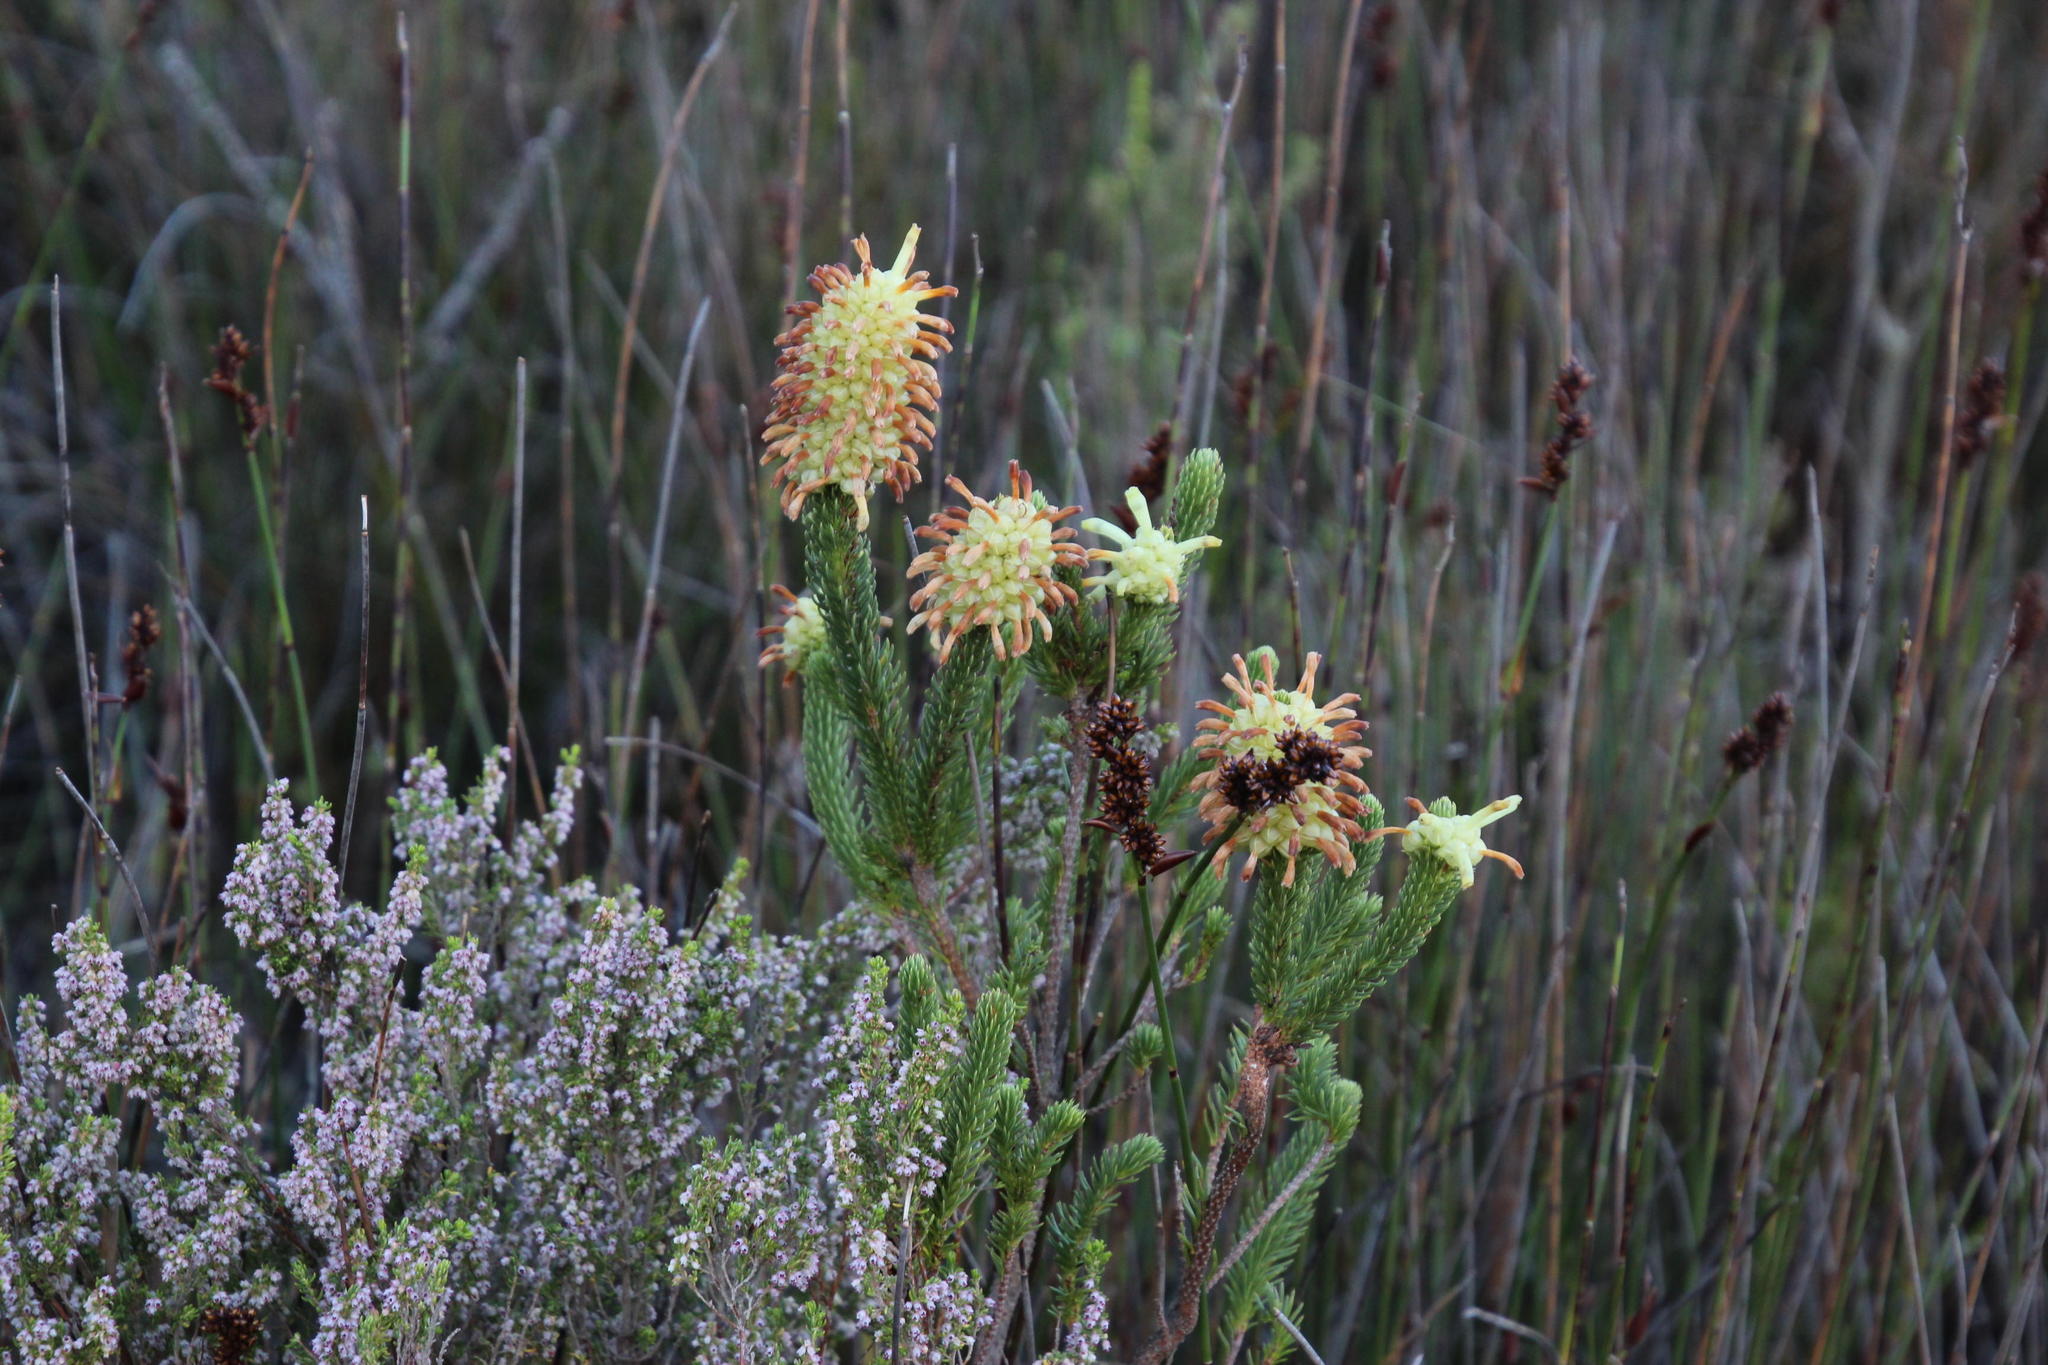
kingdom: Plantae
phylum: Tracheophyta
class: Magnoliopsida
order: Ericales
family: Ericaceae
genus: Erica
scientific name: Erica sessiliflora
